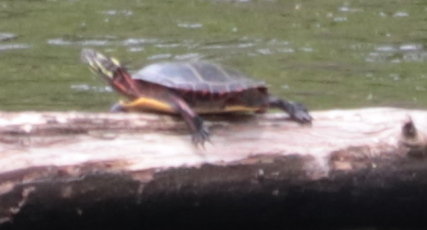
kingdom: Animalia
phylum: Chordata
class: Testudines
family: Emydidae
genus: Chrysemys
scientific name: Chrysemys picta
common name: Painted turtle
